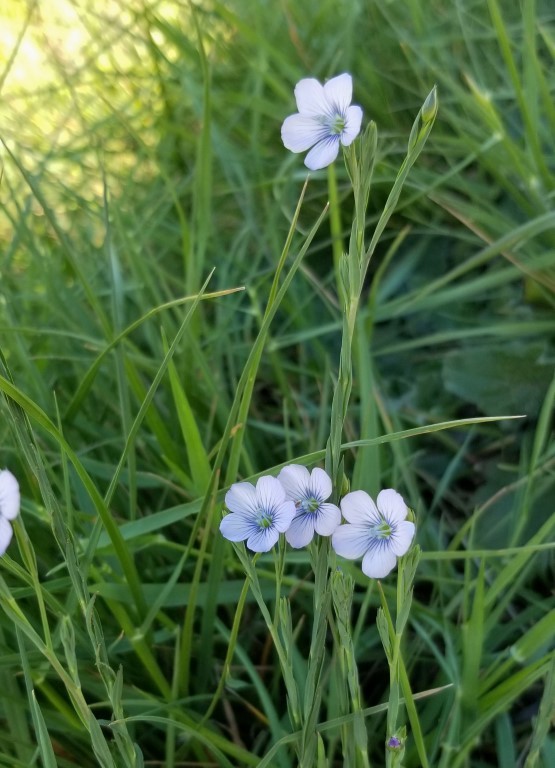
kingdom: Plantae
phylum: Tracheophyta
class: Magnoliopsida
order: Malpighiales
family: Linaceae
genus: Linum
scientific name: Linum bienne
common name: Pale flax
